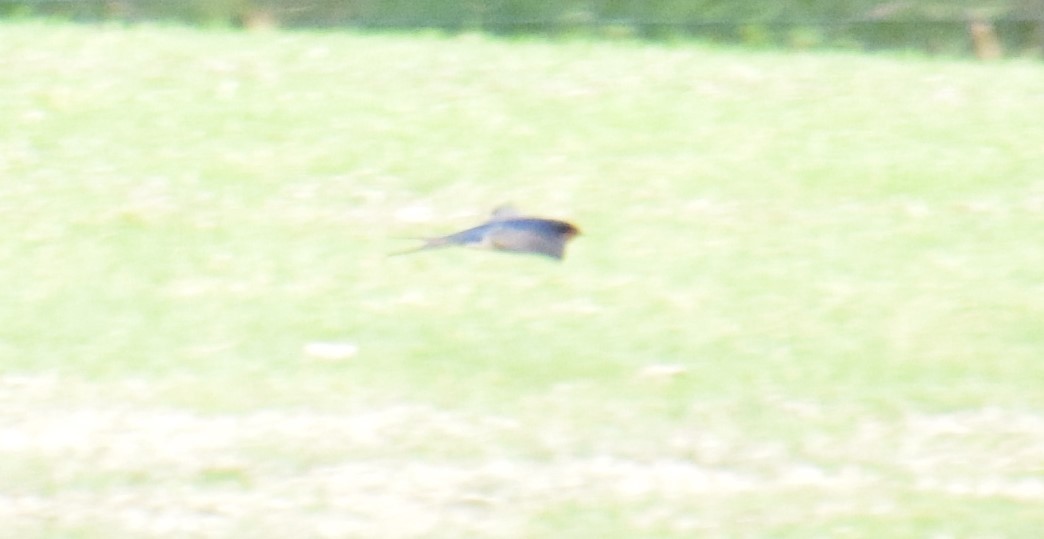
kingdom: Animalia
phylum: Chordata
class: Aves
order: Passeriformes
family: Hirundinidae
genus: Hirundo
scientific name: Hirundo neoxena
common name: Welcome swallow
